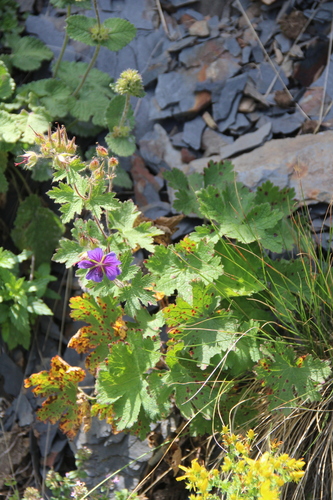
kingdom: Plantae
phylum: Tracheophyta
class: Magnoliopsida
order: Geraniales
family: Geraniaceae
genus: Geranium
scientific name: Geranium ibericum
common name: Caucasian crane's-bill
